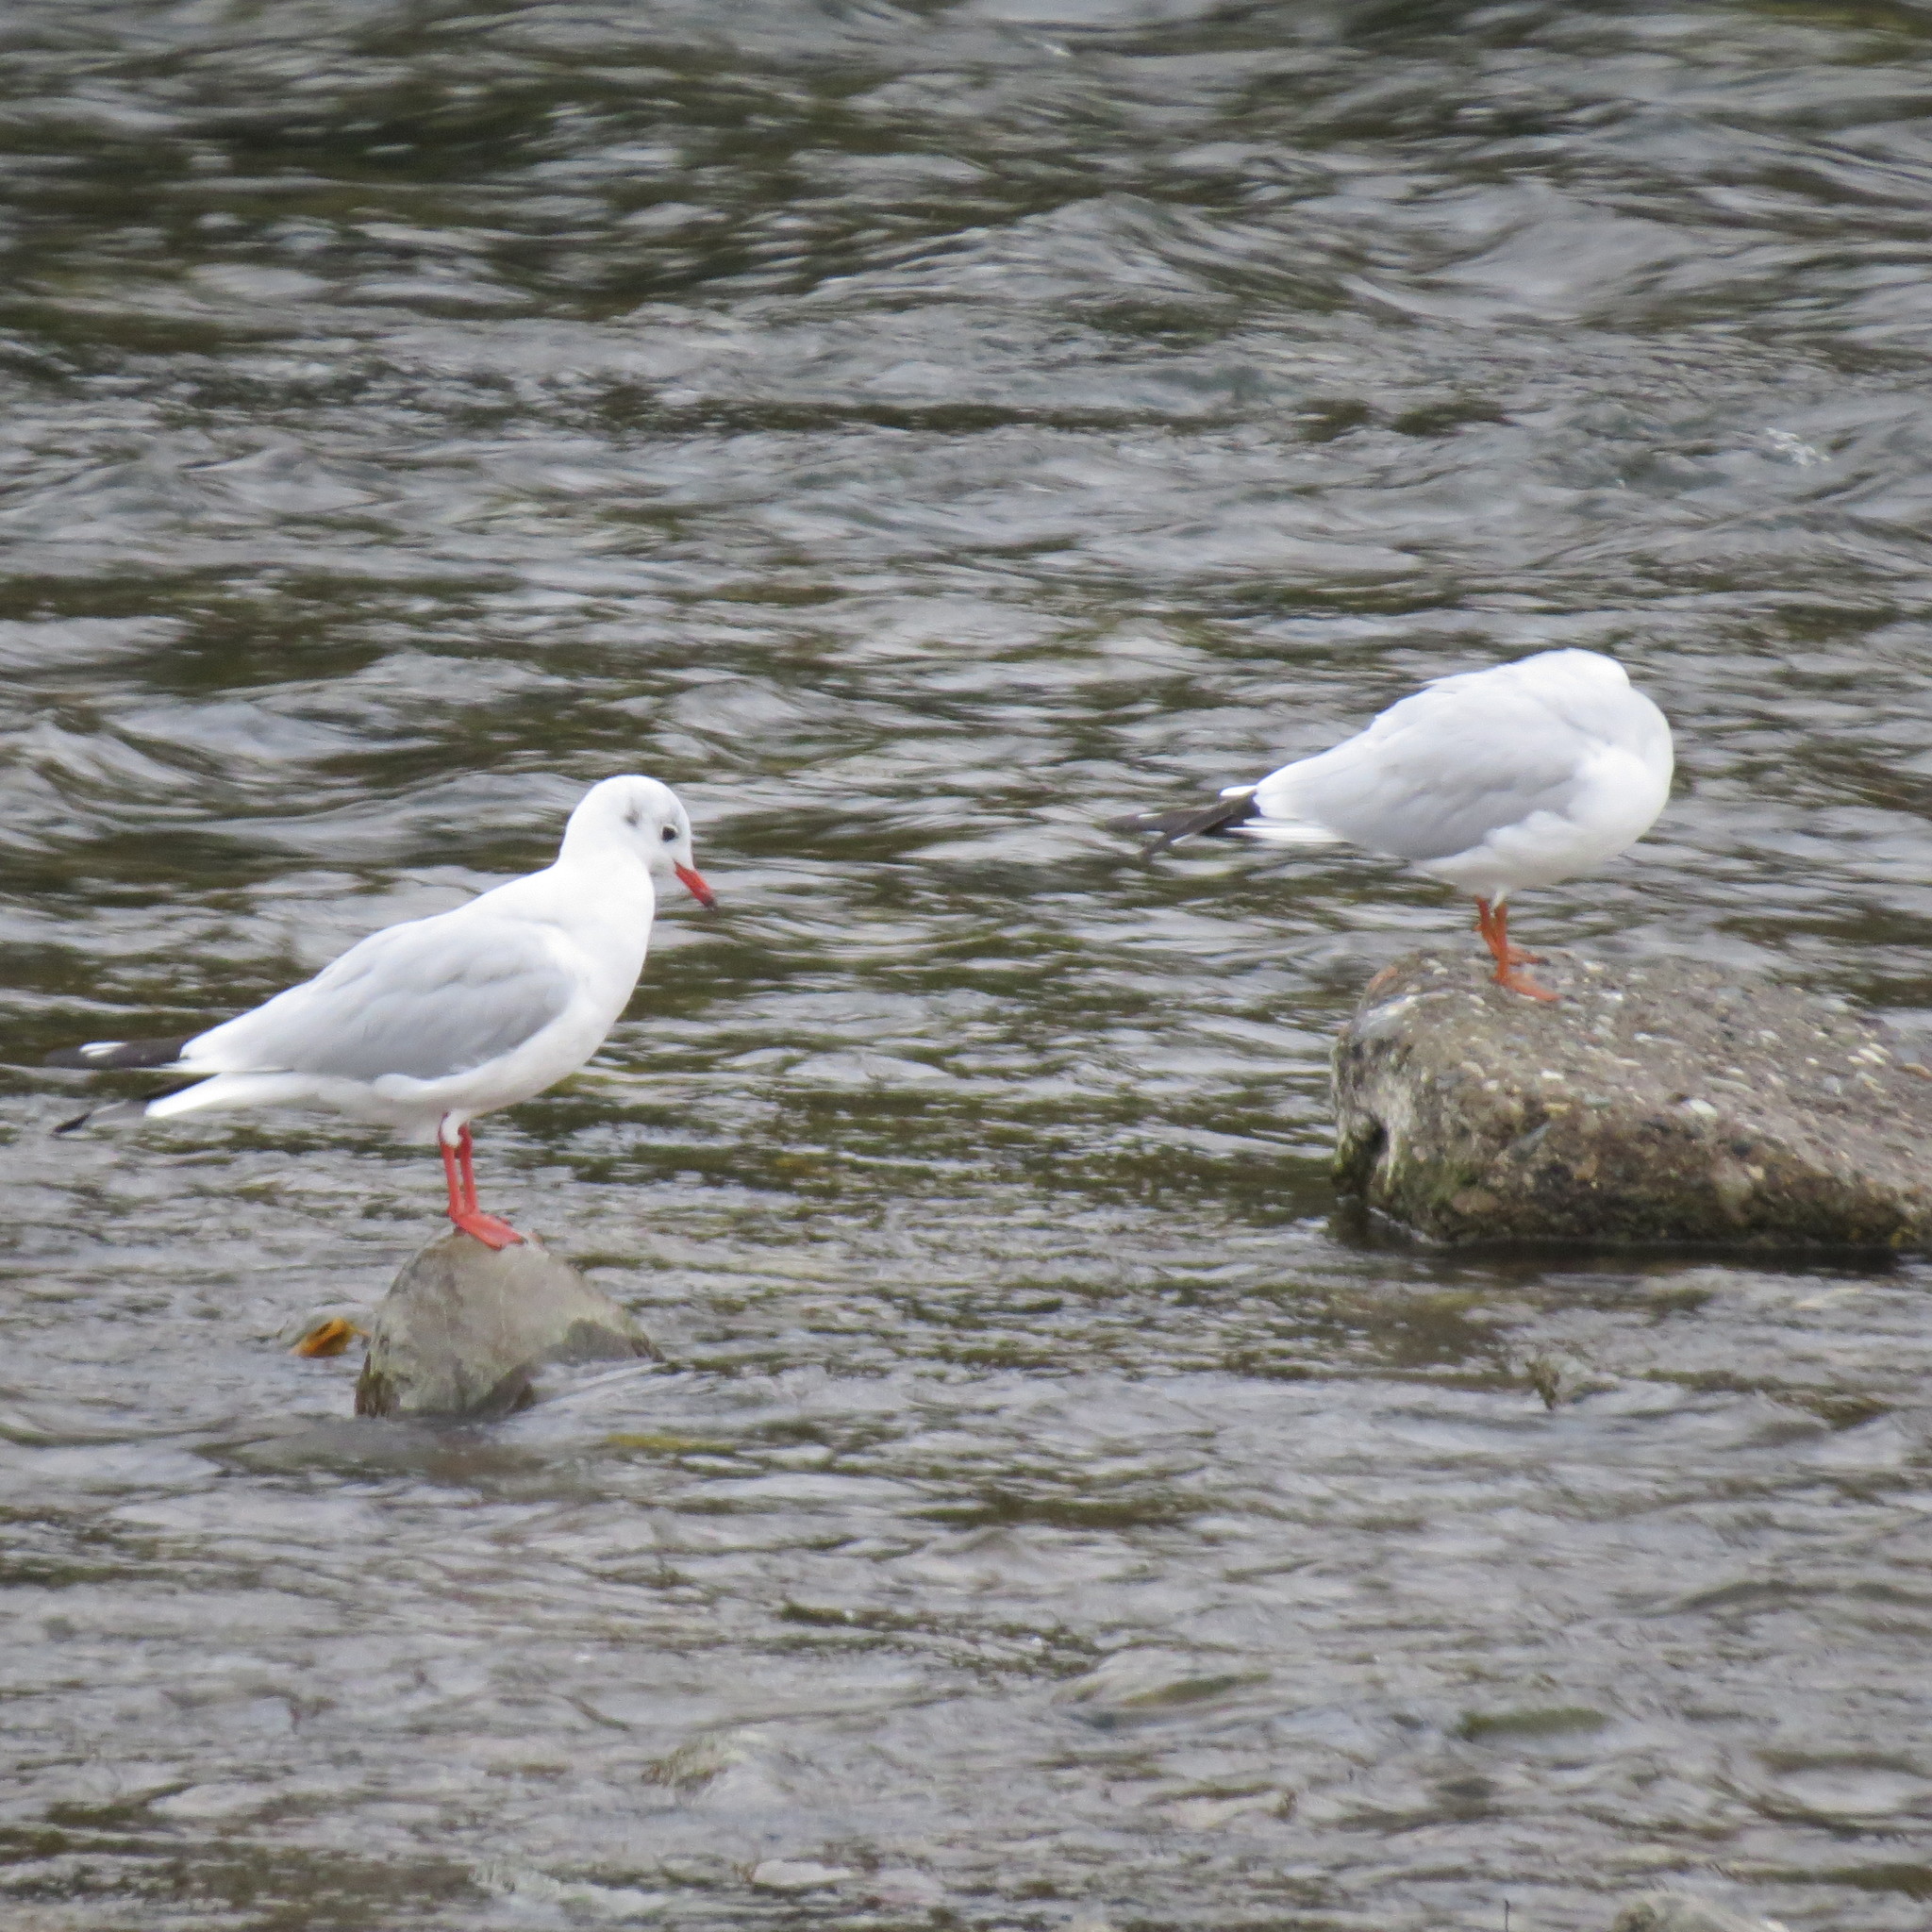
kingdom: Animalia
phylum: Chordata
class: Aves
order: Charadriiformes
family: Laridae
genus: Chroicocephalus
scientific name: Chroicocephalus ridibundus
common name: Black-headed gull
